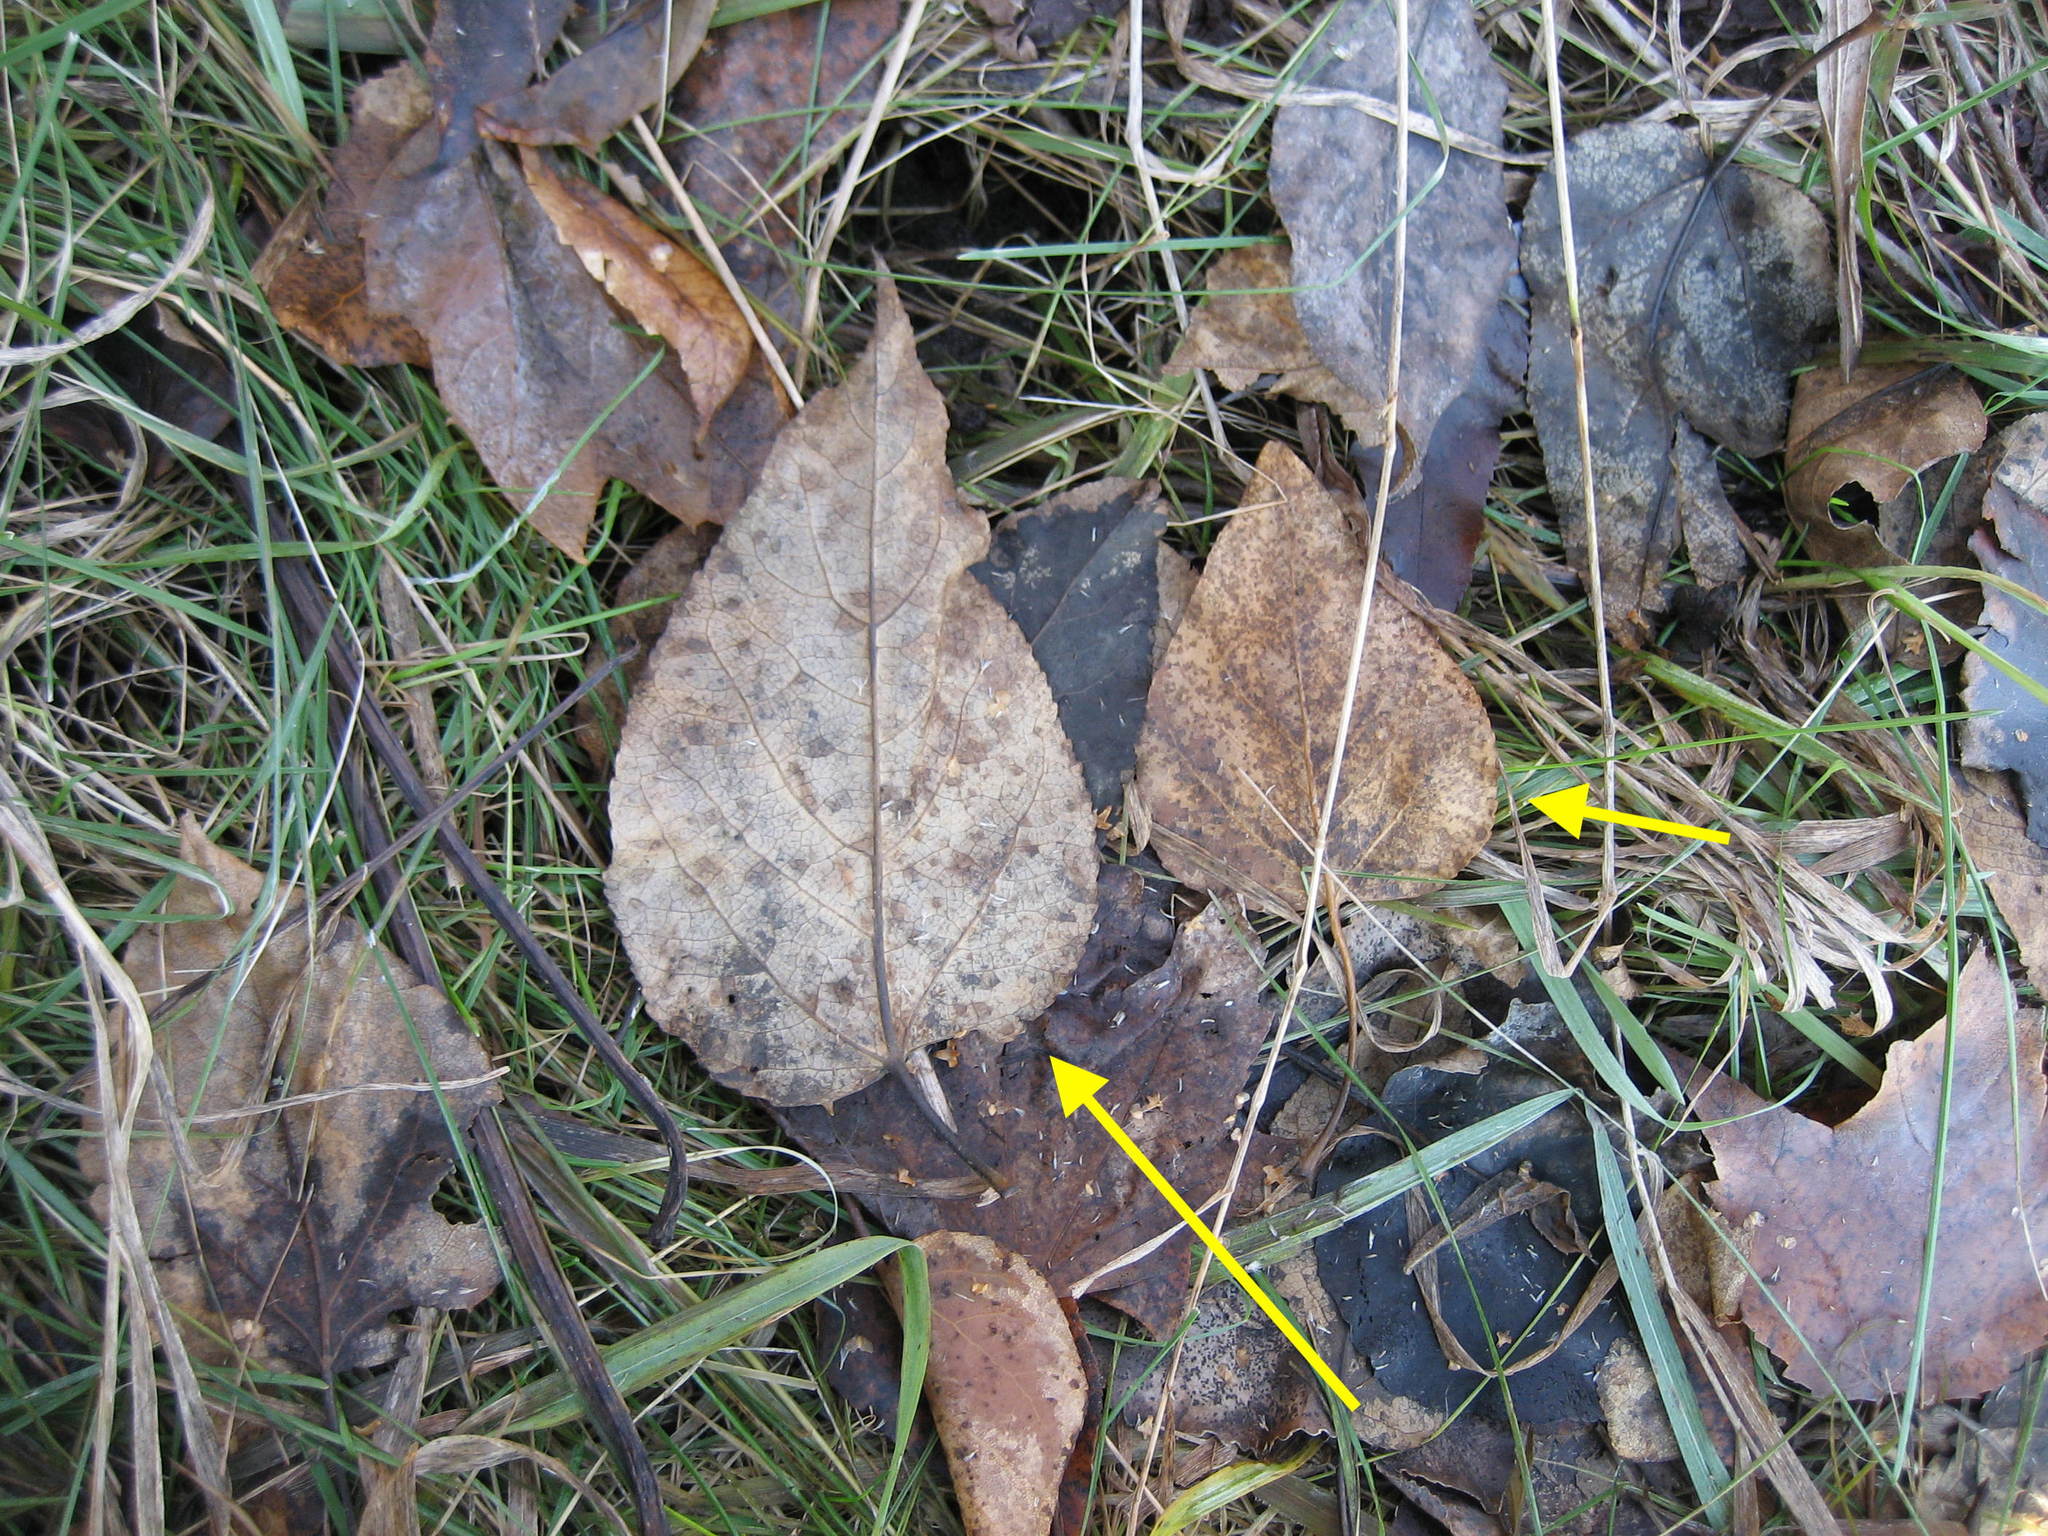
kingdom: Plantae
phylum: Tracheophyta
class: Magnoliopsida
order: Malpighiales
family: Salicaceae
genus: Populus
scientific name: Populus balsamifera
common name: Balsam poplar
